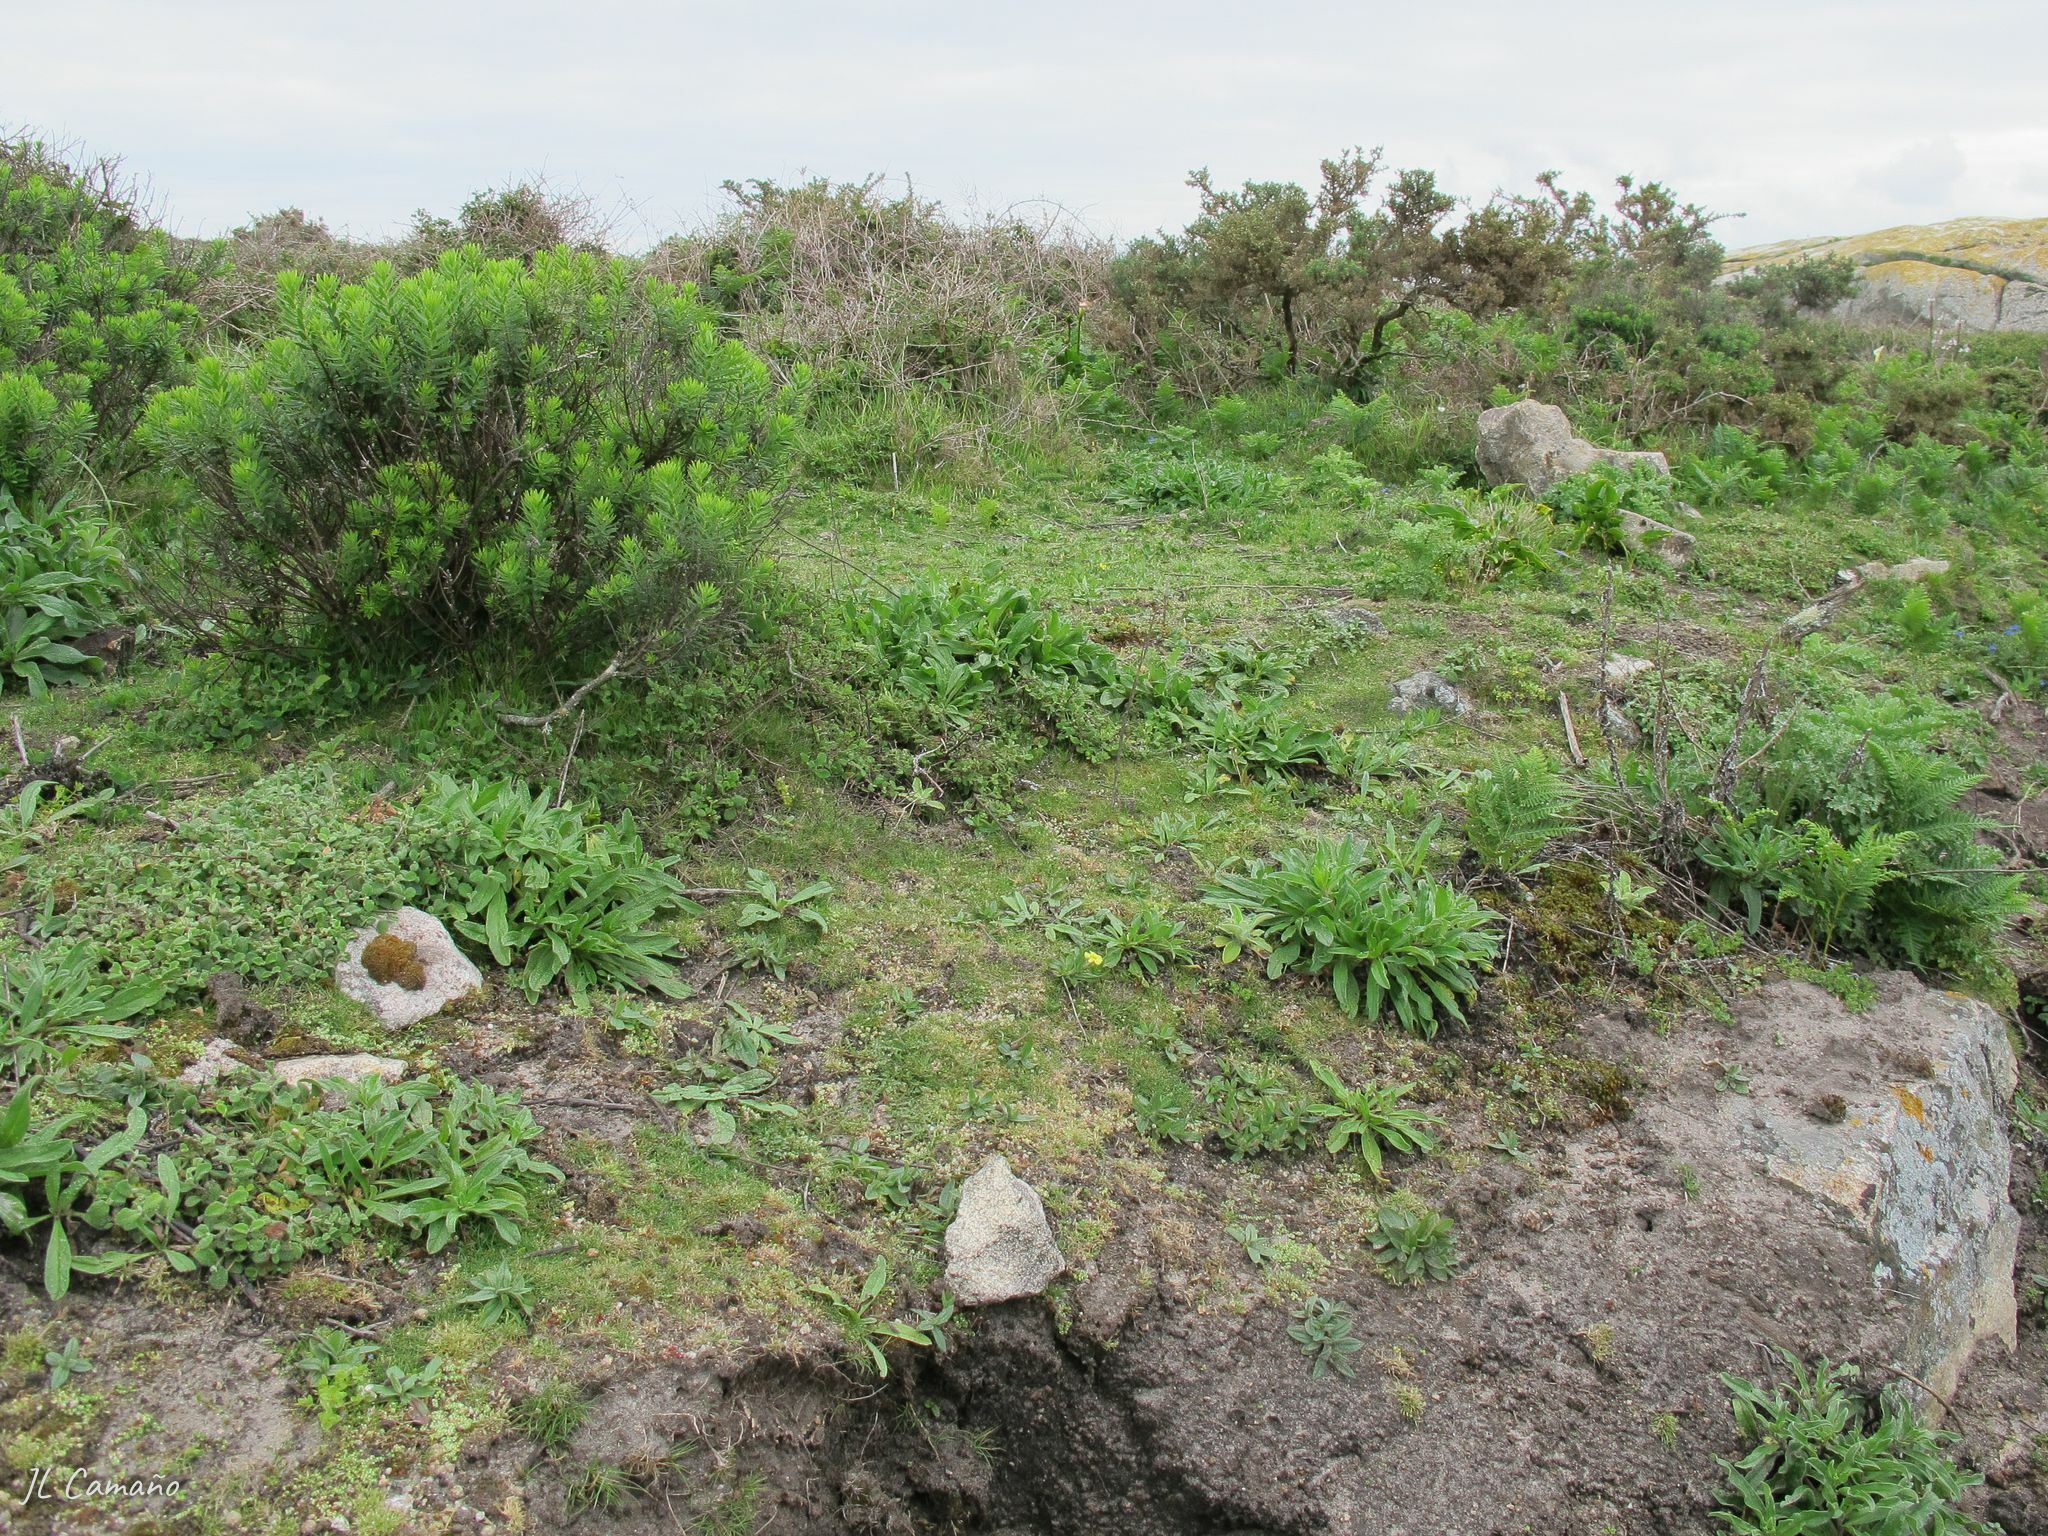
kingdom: Plantae
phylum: Bryophyta
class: Polytrichopsida
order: Polytrichales
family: Polytrichaceae
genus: Polytrichum
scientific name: Polytrichum juniperinum
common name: Juniper haircap moss
